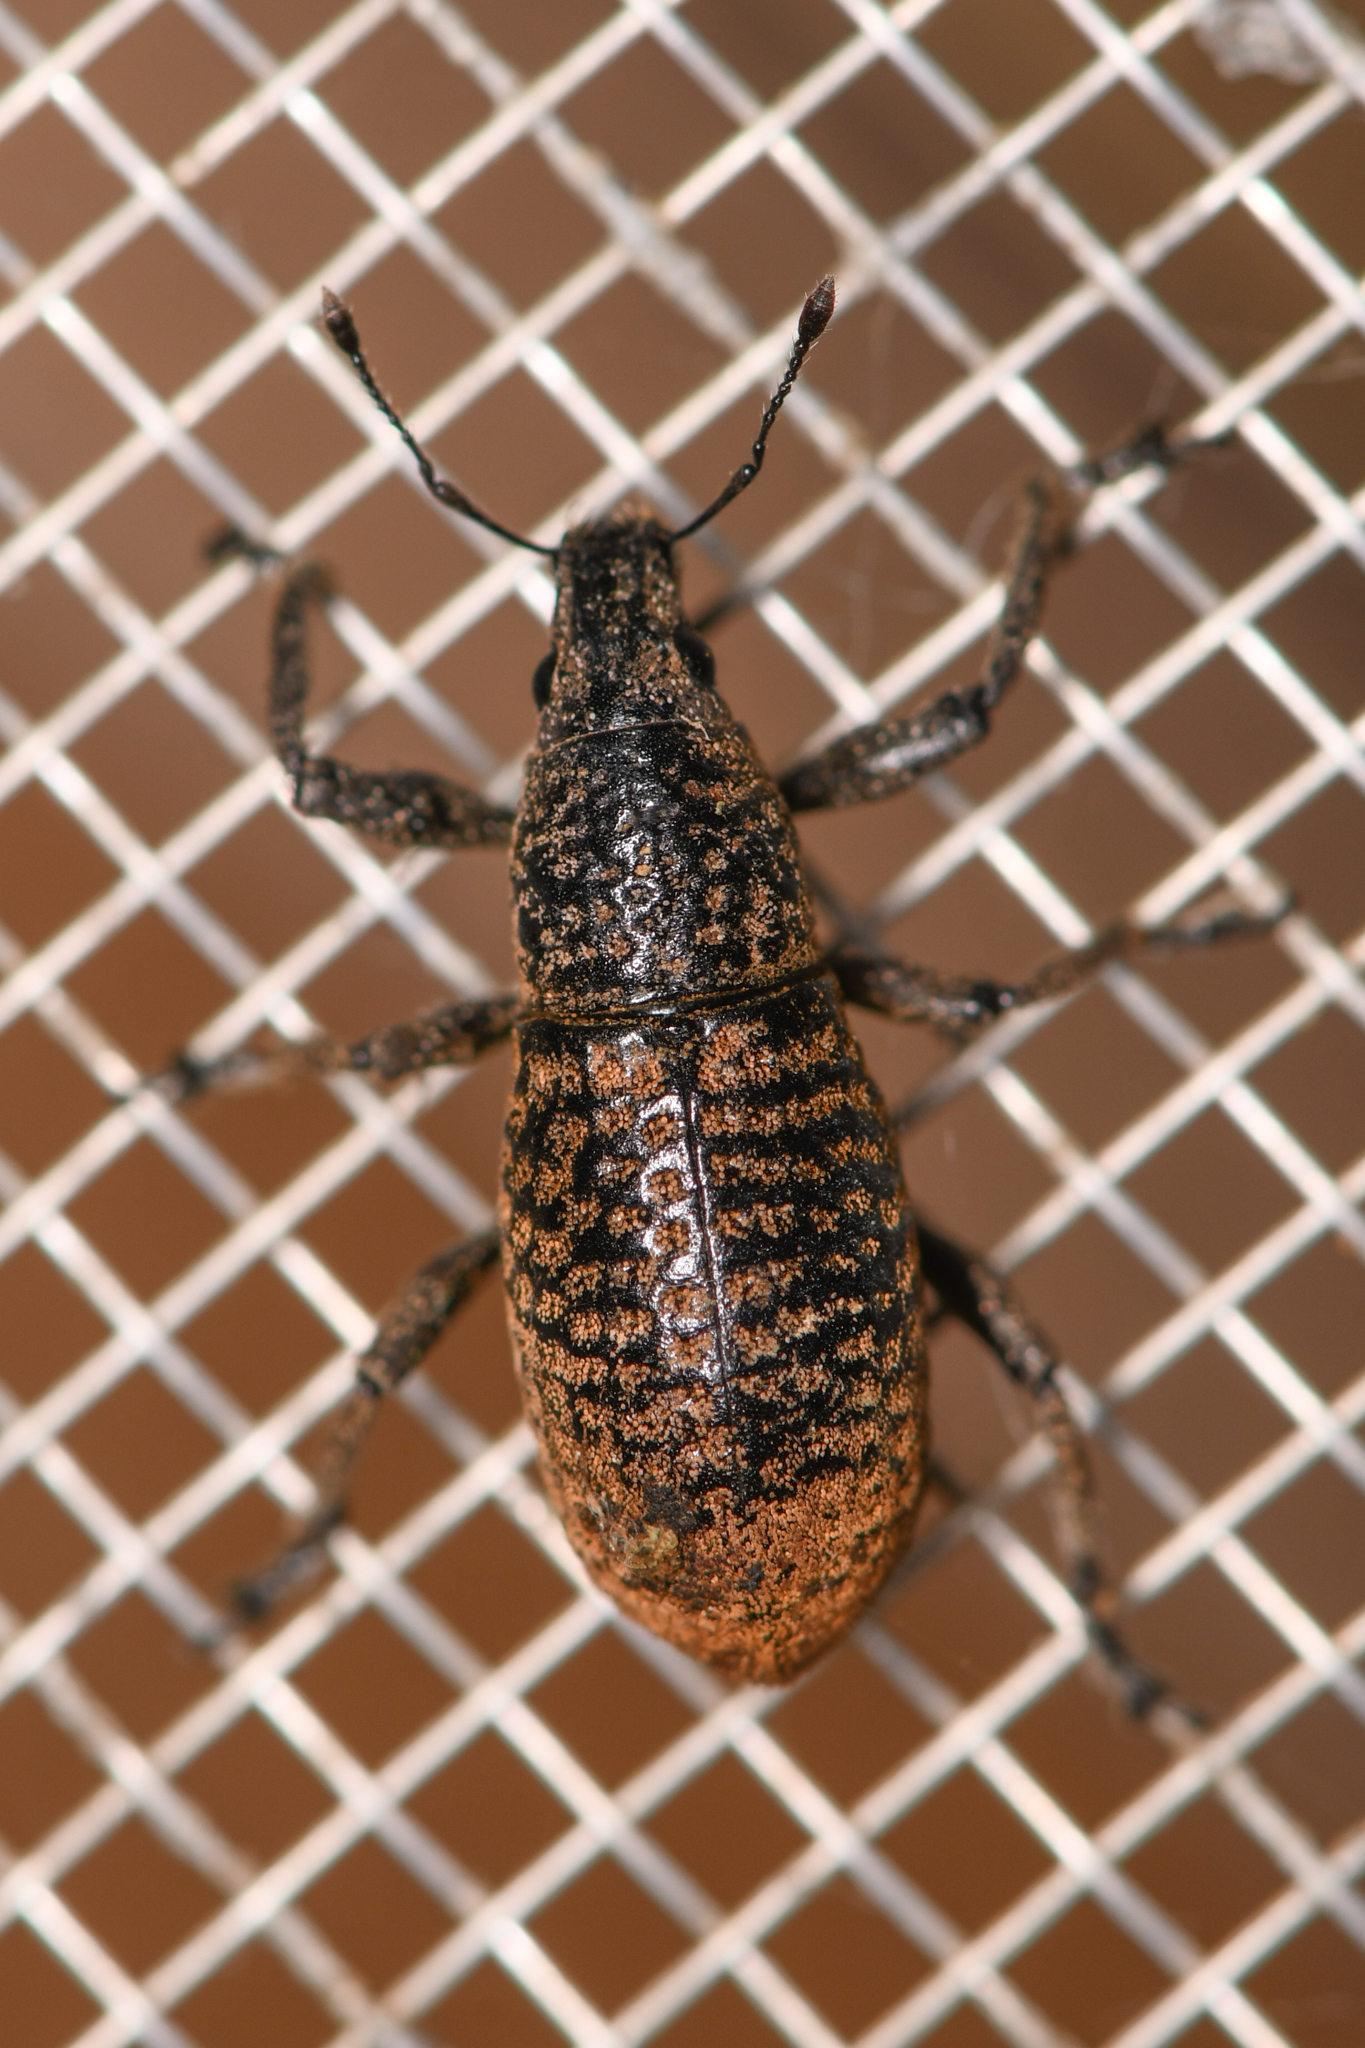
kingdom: Animalia
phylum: Arthropoda
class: Insecta
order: Coleoptera
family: Curculionidae
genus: Cleistolophus
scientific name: Cleistolophus similis
